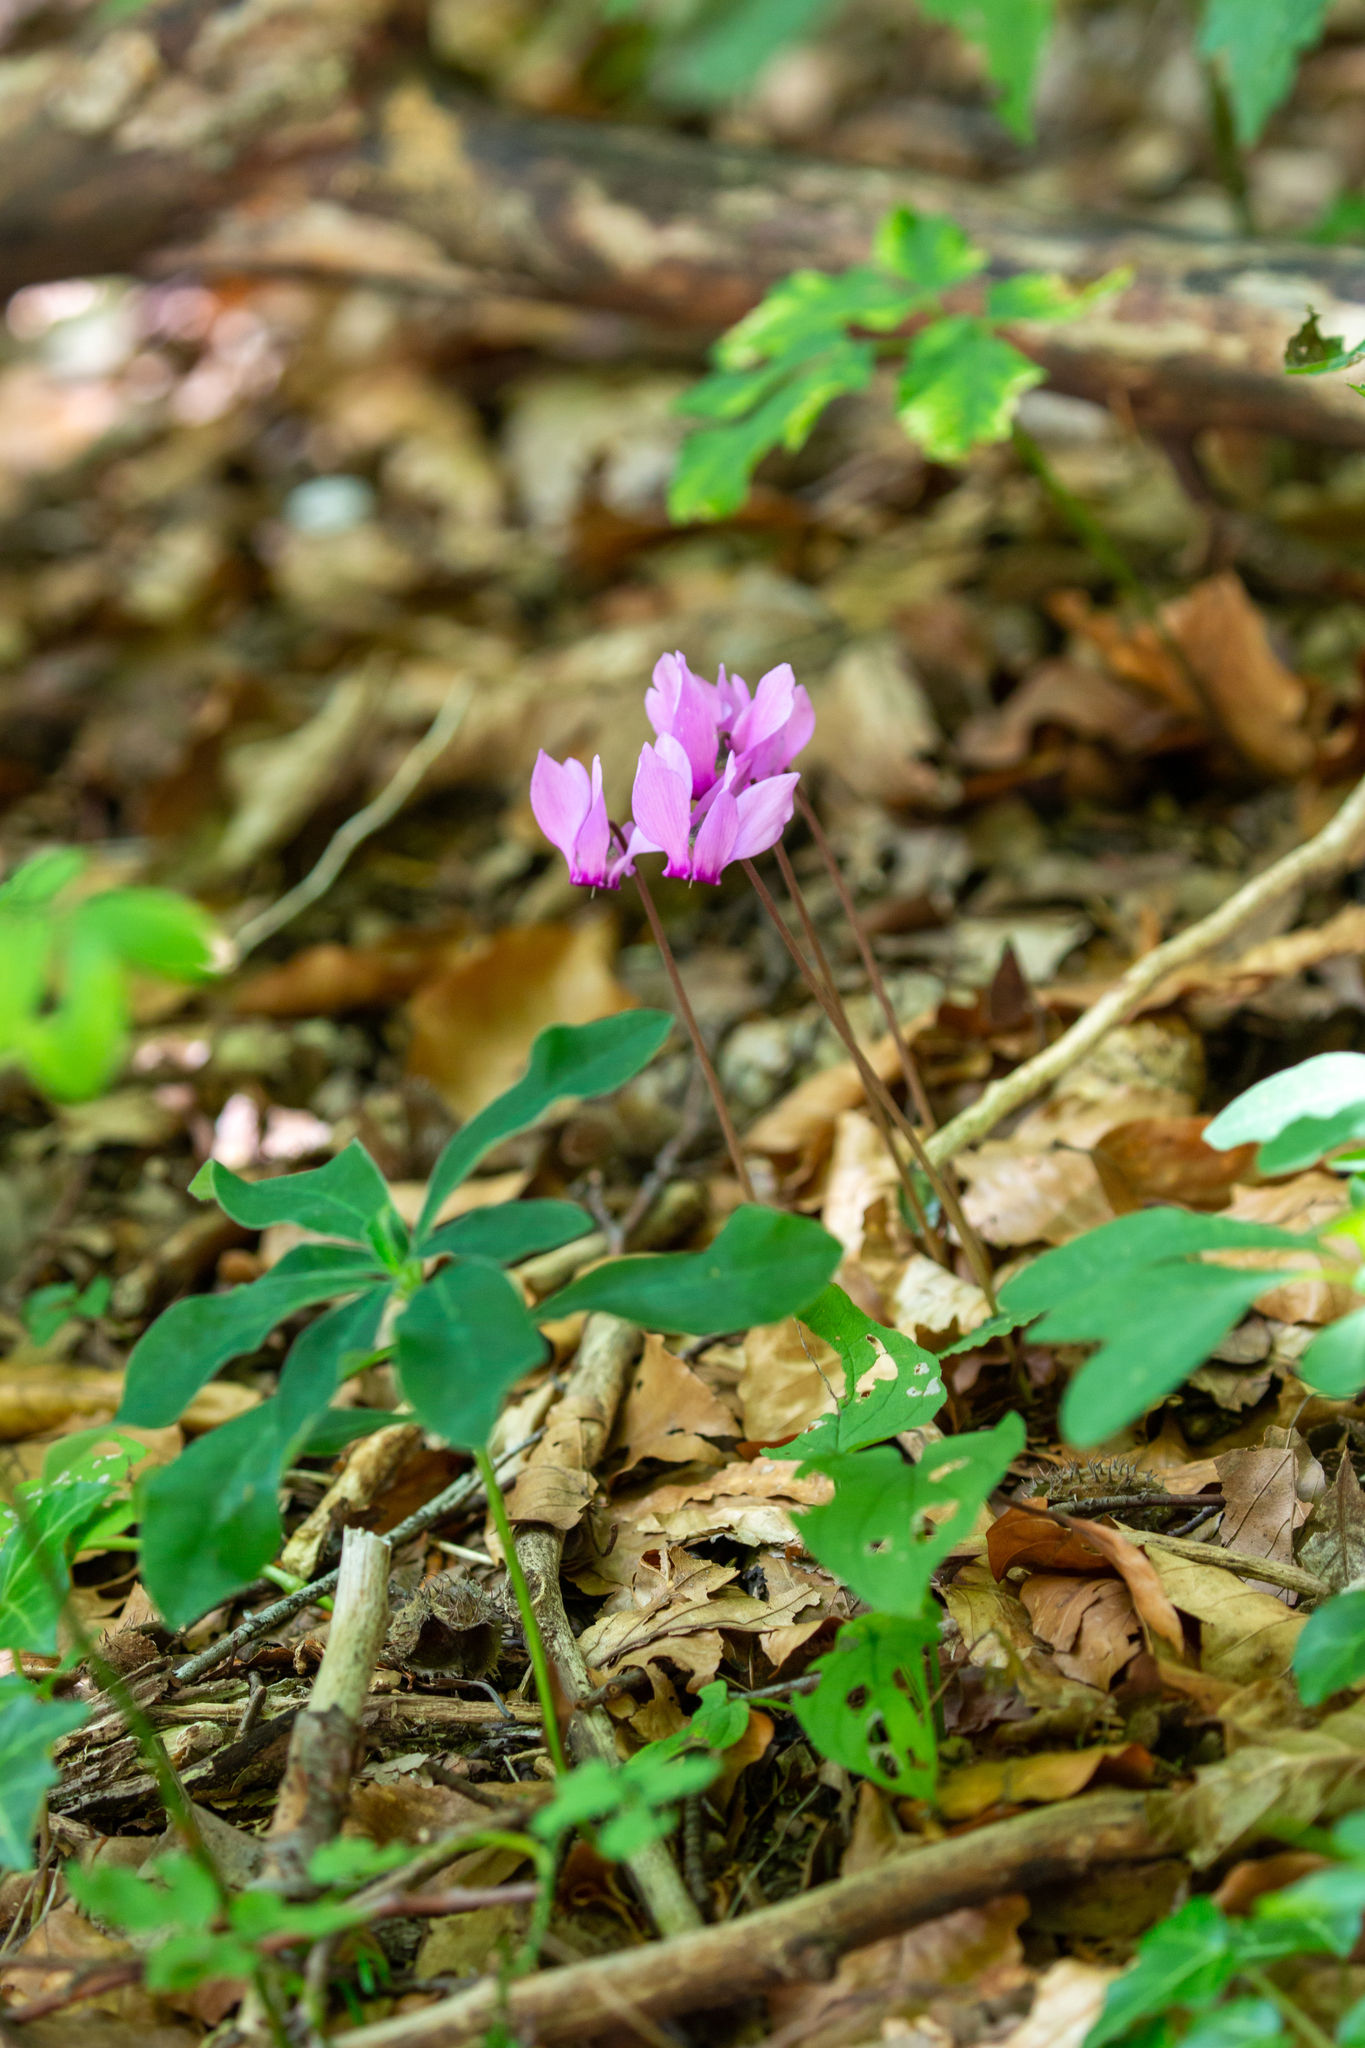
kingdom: Plantae
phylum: Tracheophyta
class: Magnoliopsida
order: Ericales
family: Primulaceae
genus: Cyclamen
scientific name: Cyclamen purpurascens
